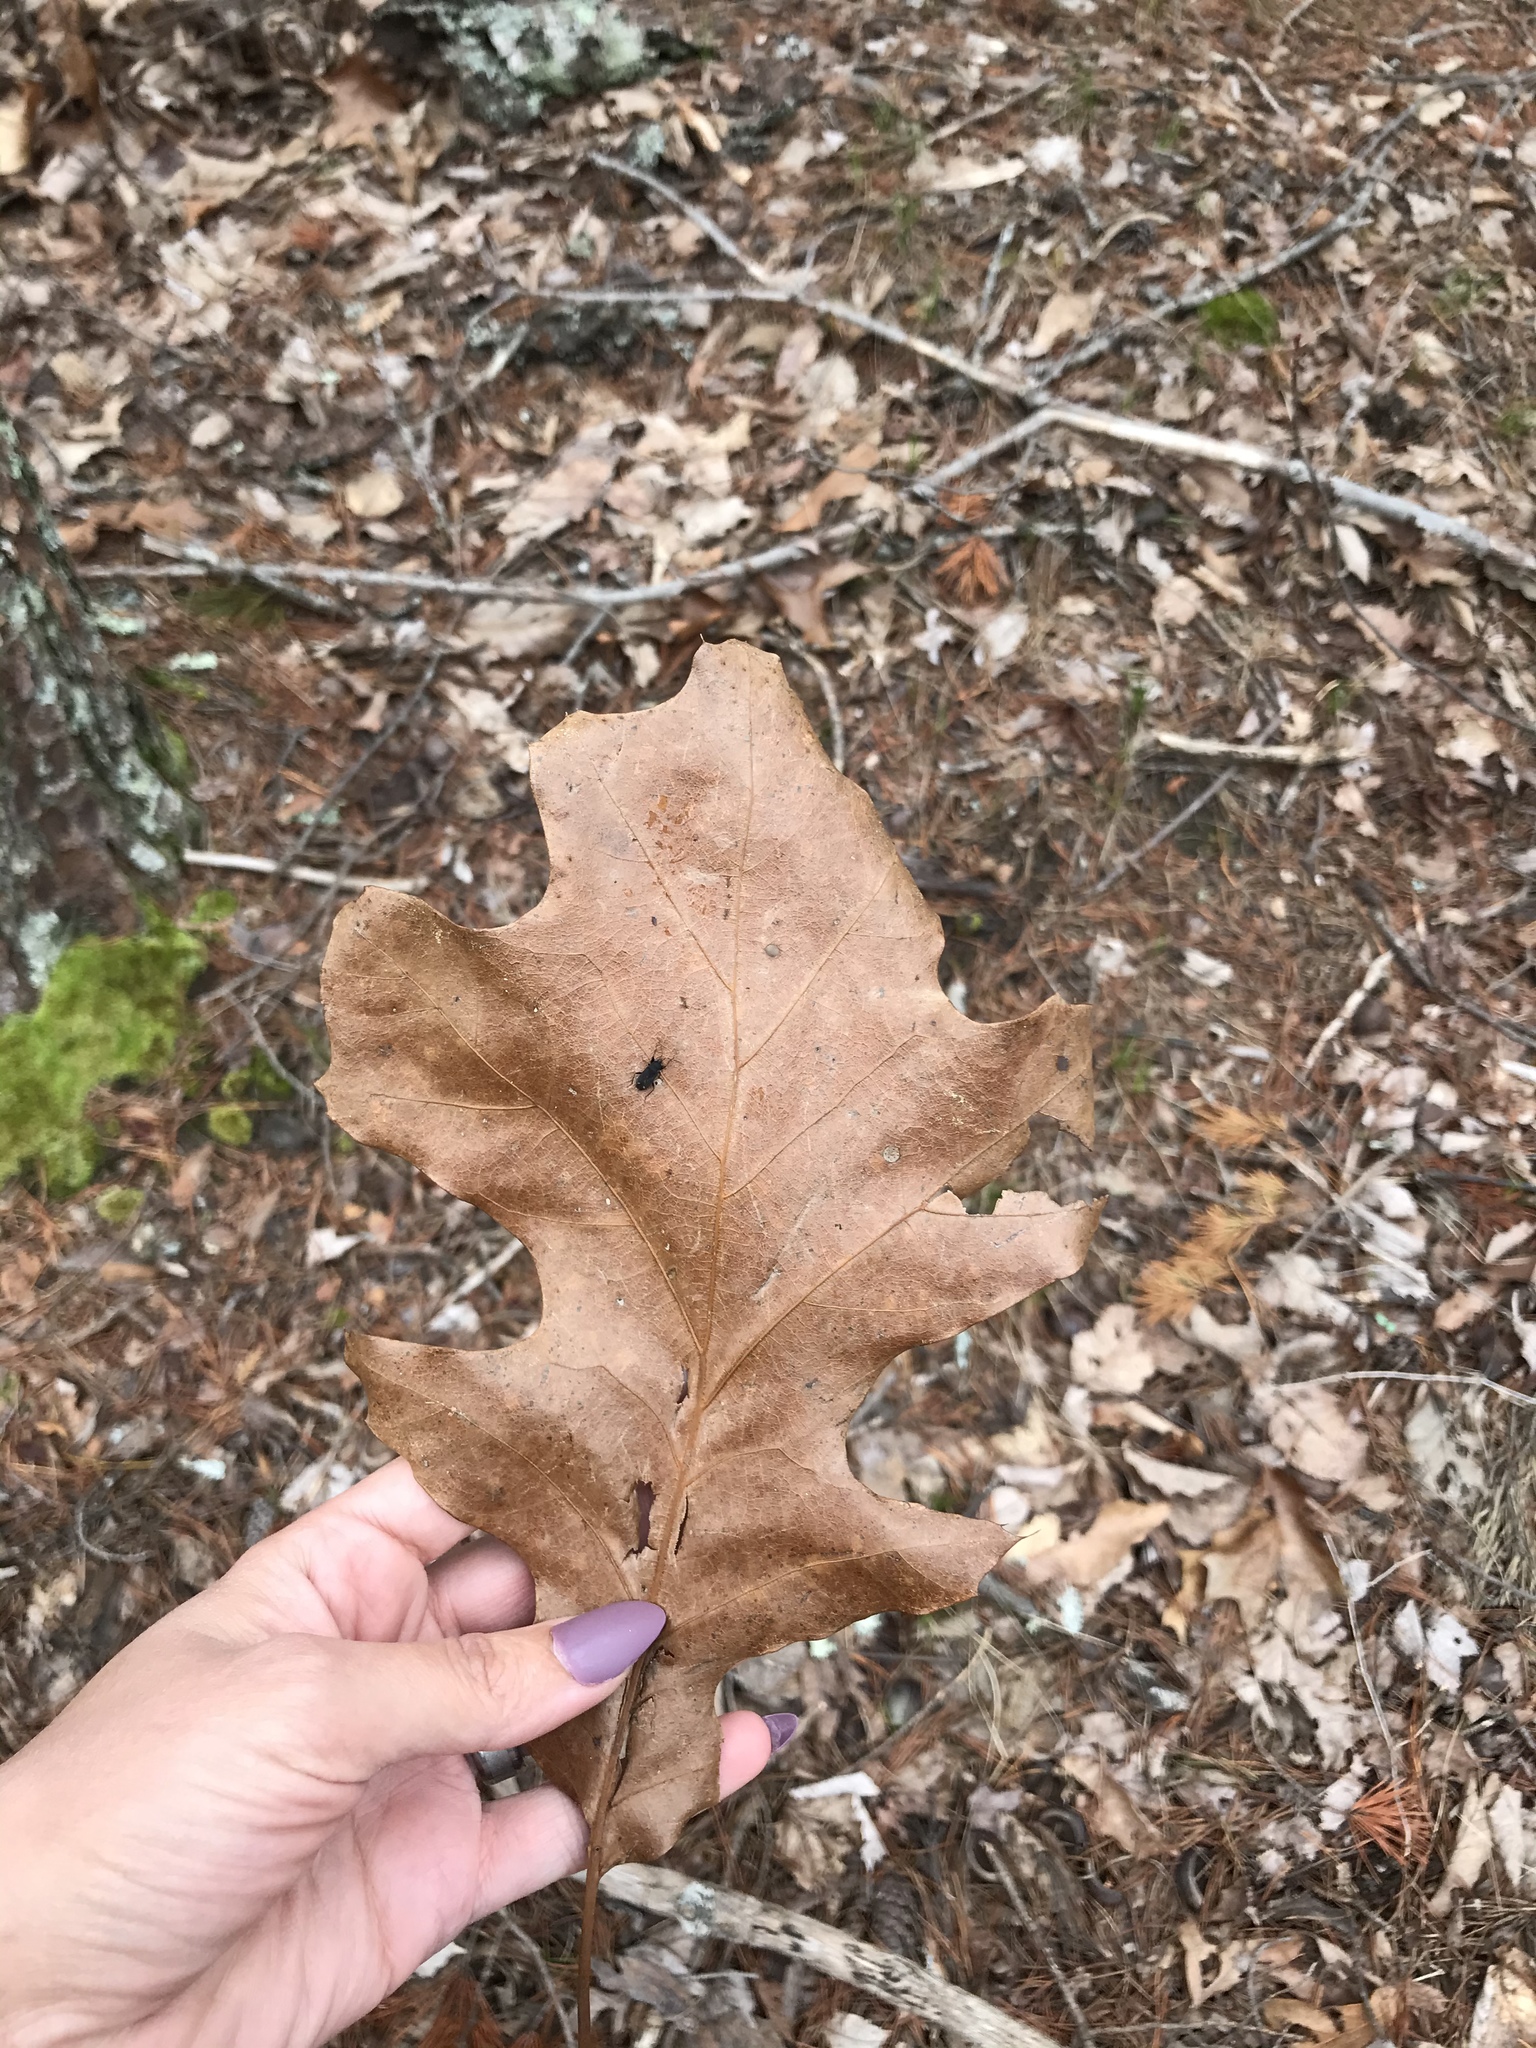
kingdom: Plantae
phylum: Tracheophyta
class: Magnoliopsida
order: Fagales
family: Fagaceae
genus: Quercus
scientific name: Quercus velutina
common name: Black oak
